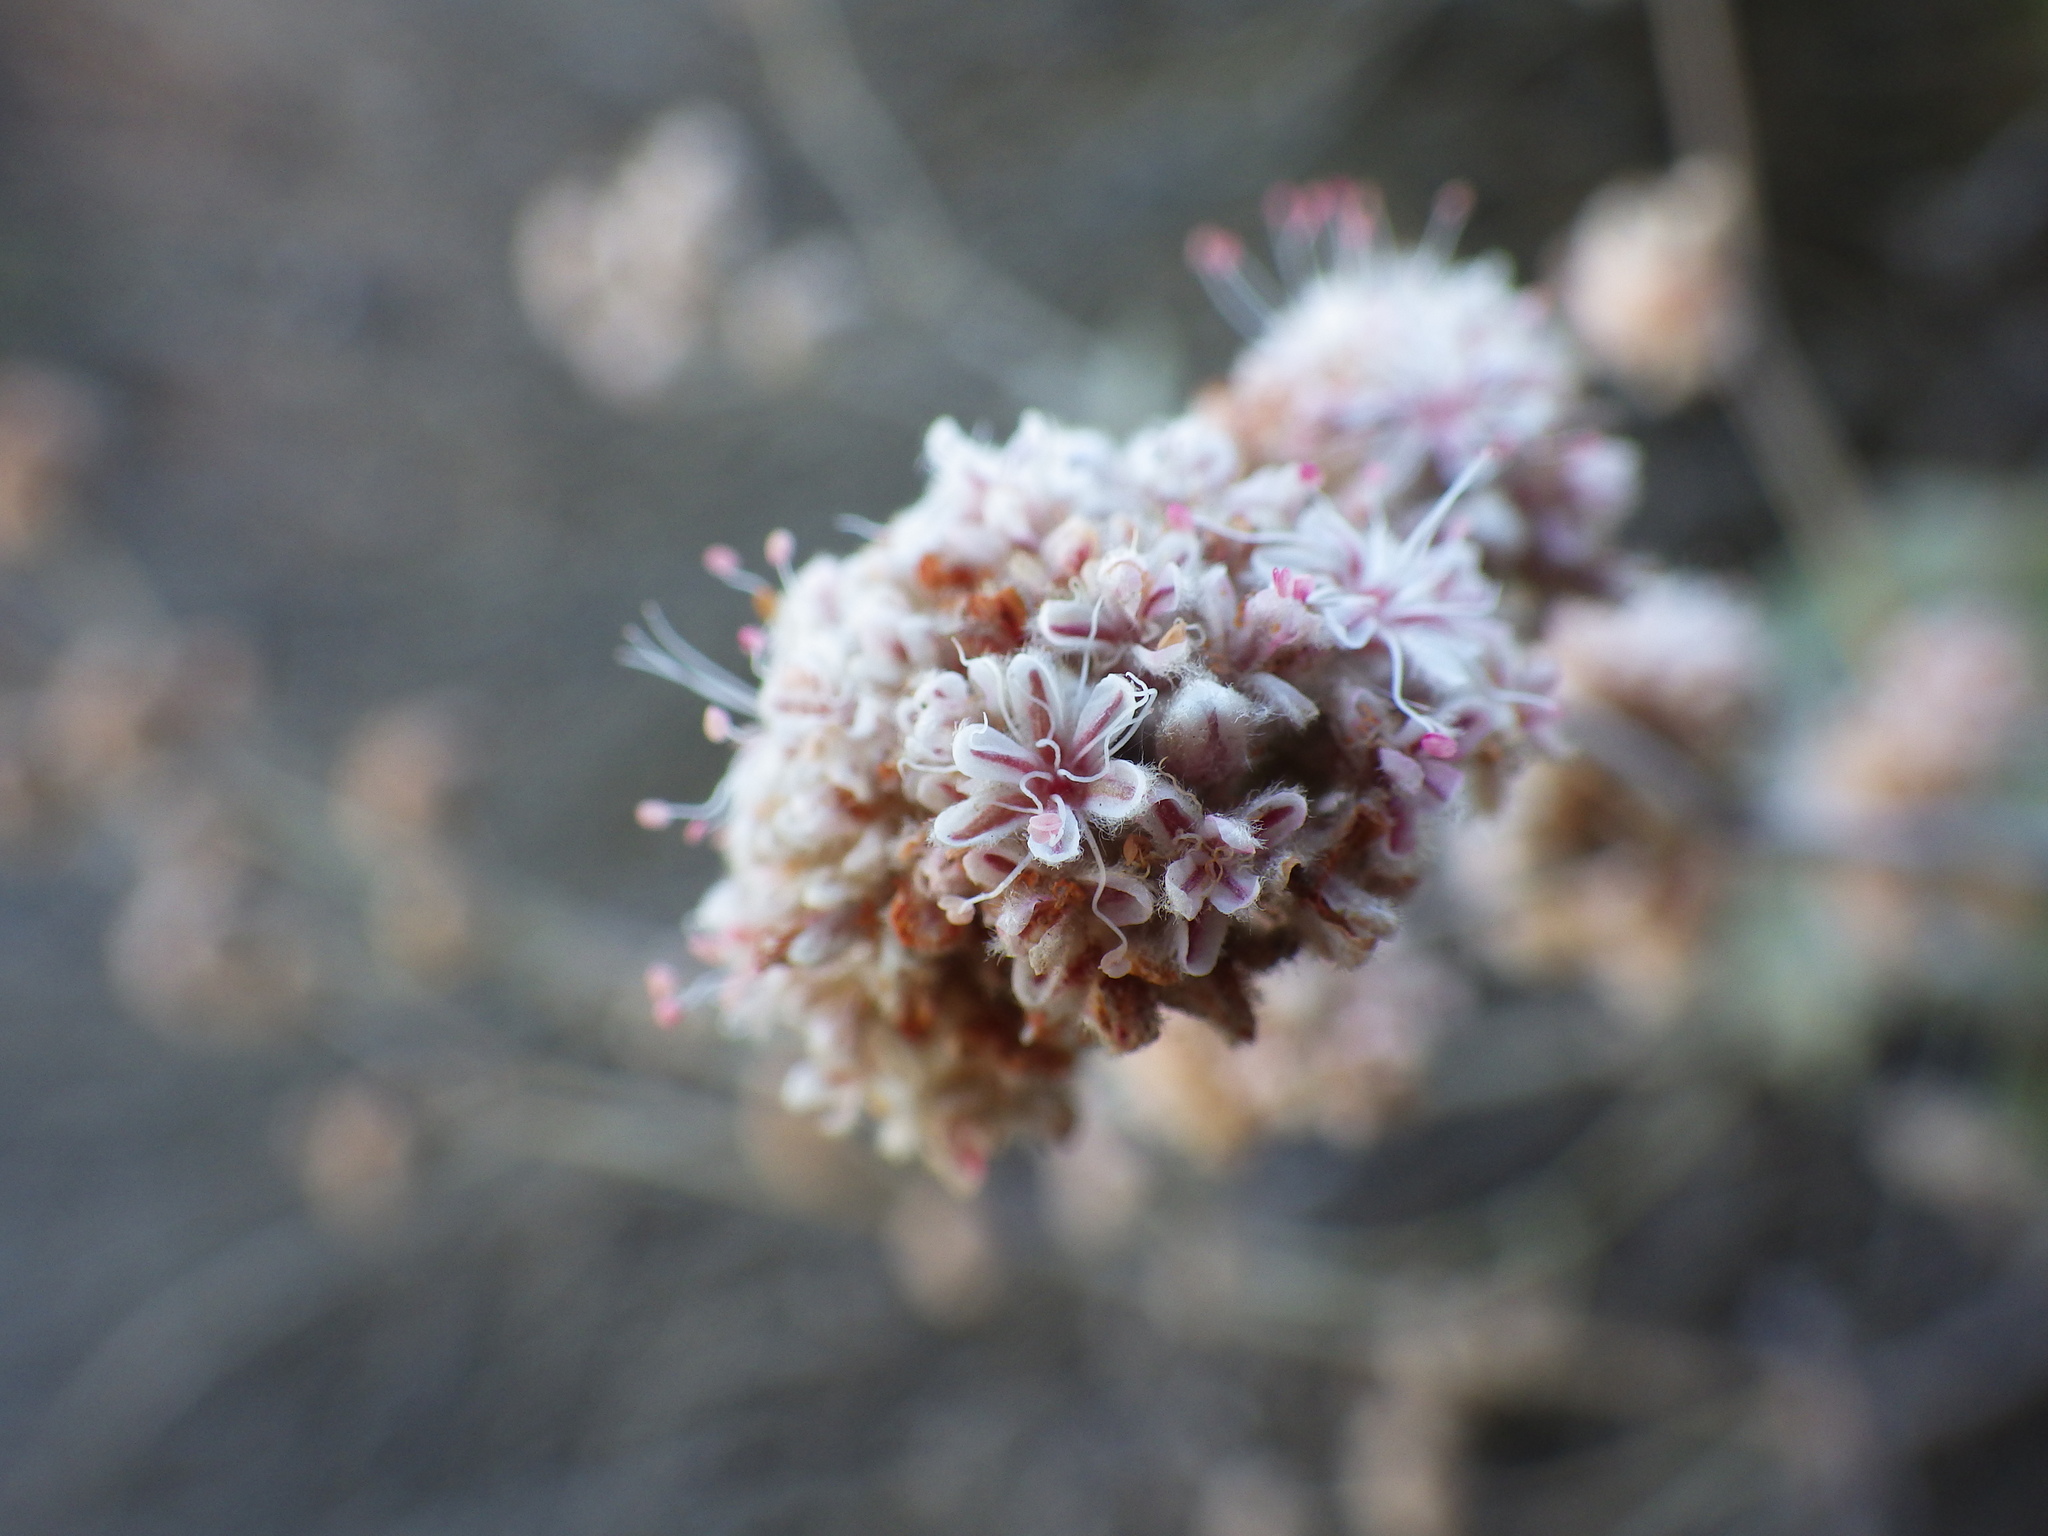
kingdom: Plantae
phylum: Tracheophyta
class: Magnoliopsida
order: Caryophyllales
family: Polygonaceae
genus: Eriogonum
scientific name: Eriogonum cinereum
